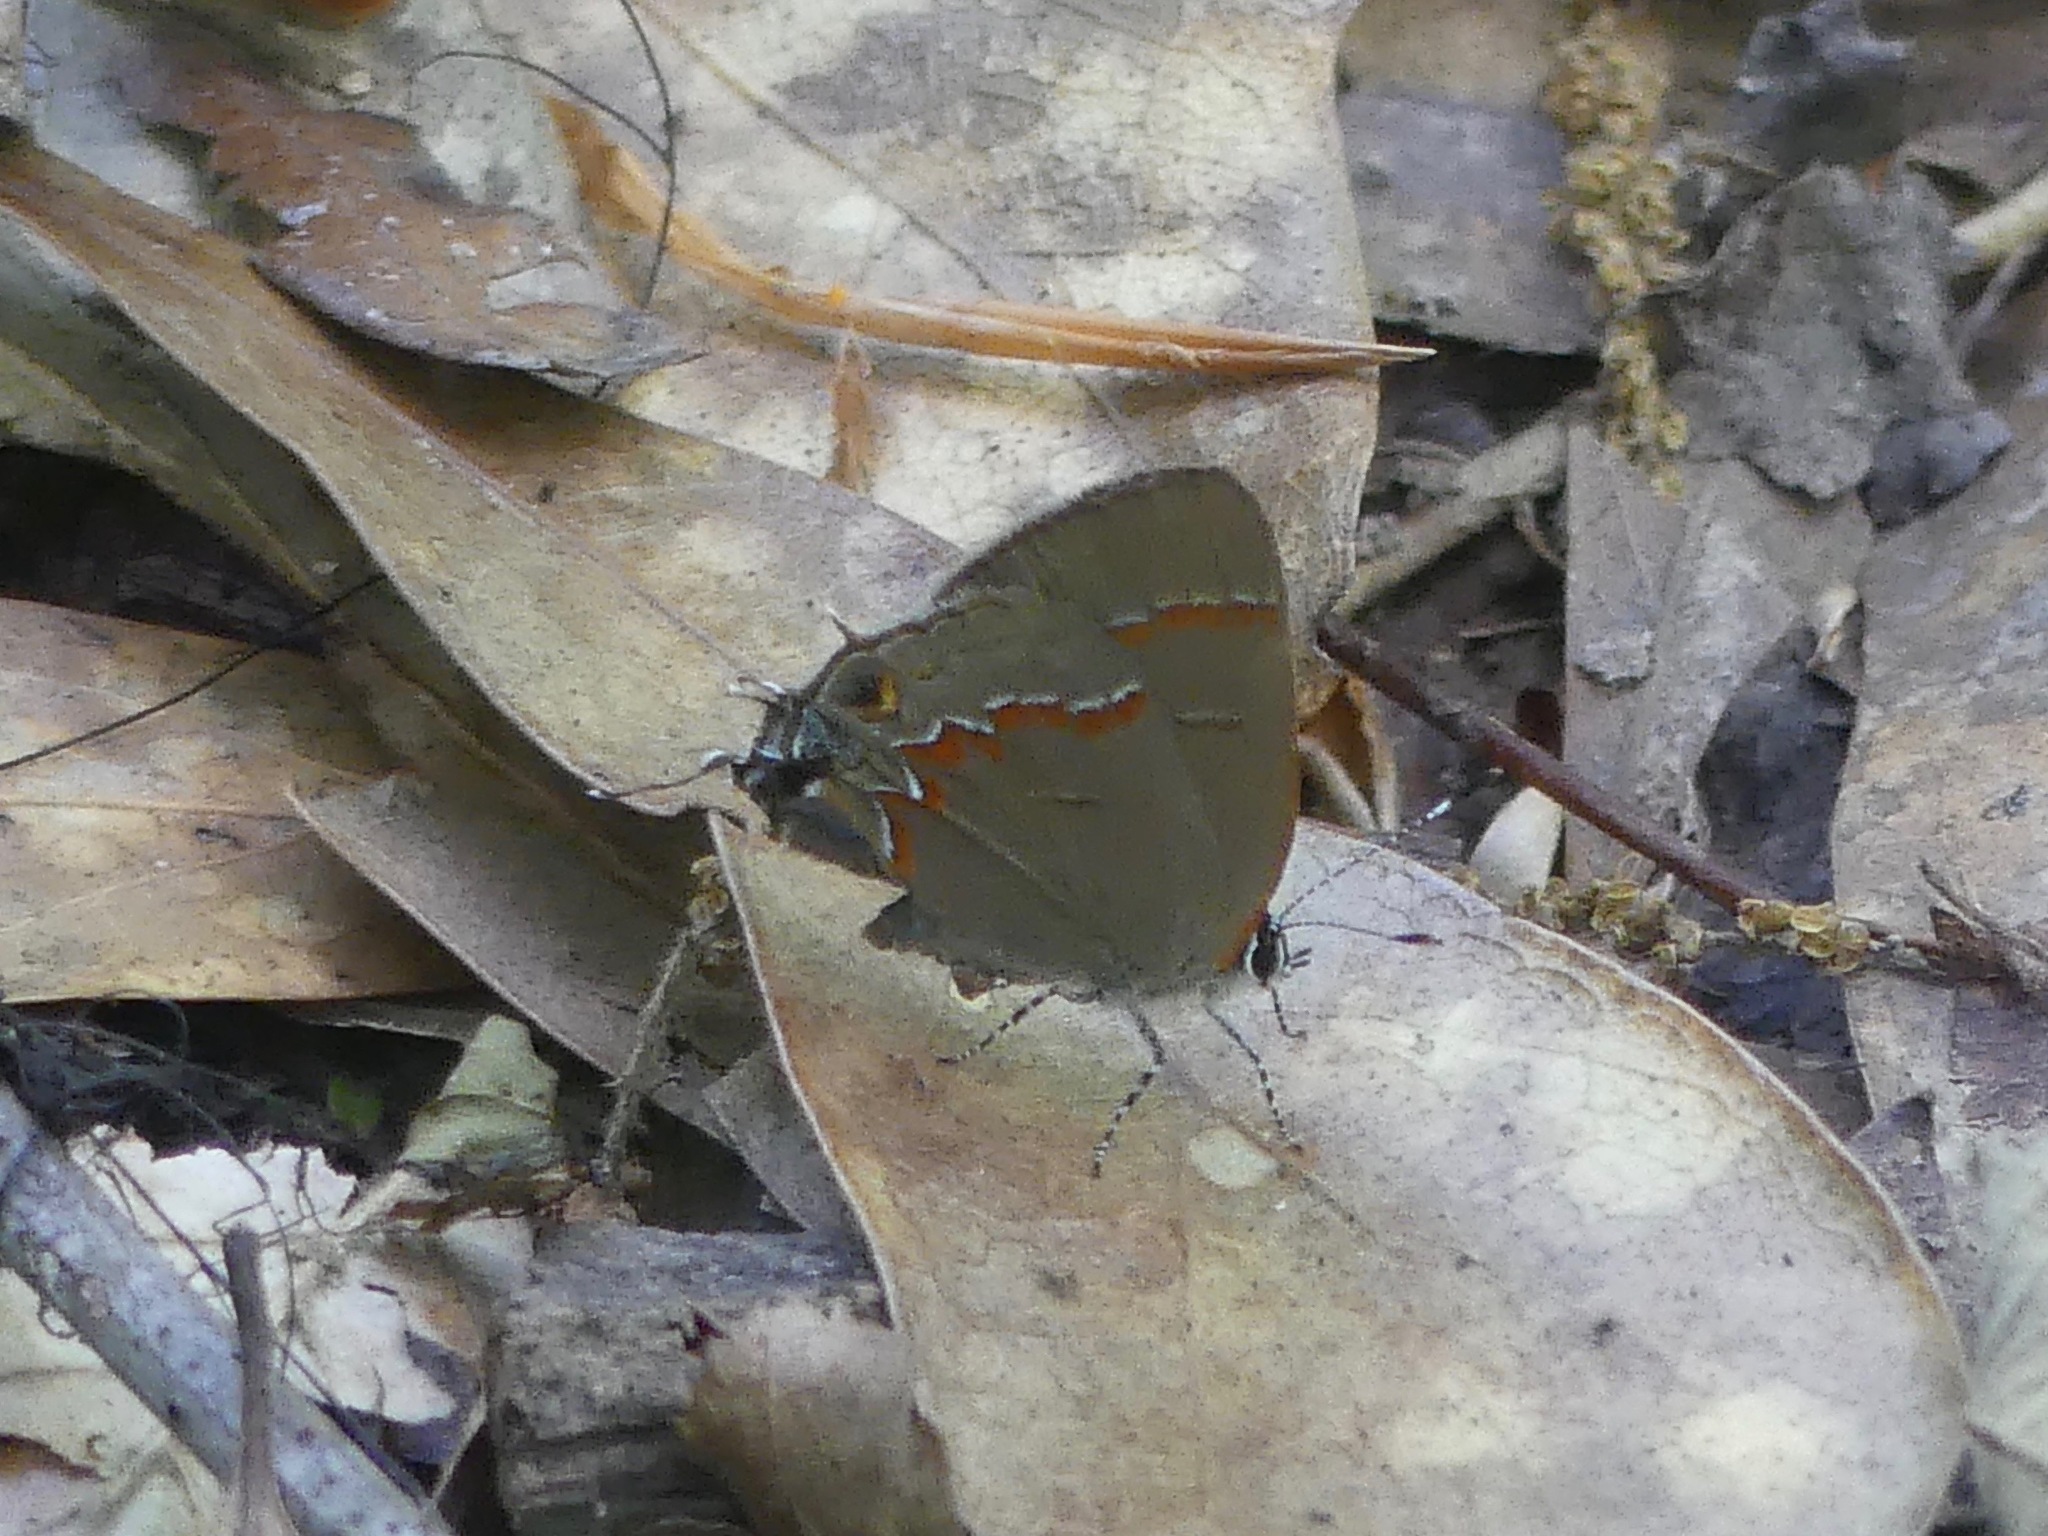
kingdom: Animalia
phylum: Arthropoda
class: Insecta
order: Lepidoptera
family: Lycaenidae
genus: Calycopis
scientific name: Calycopis cecrops
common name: Red-banded hairstreak
